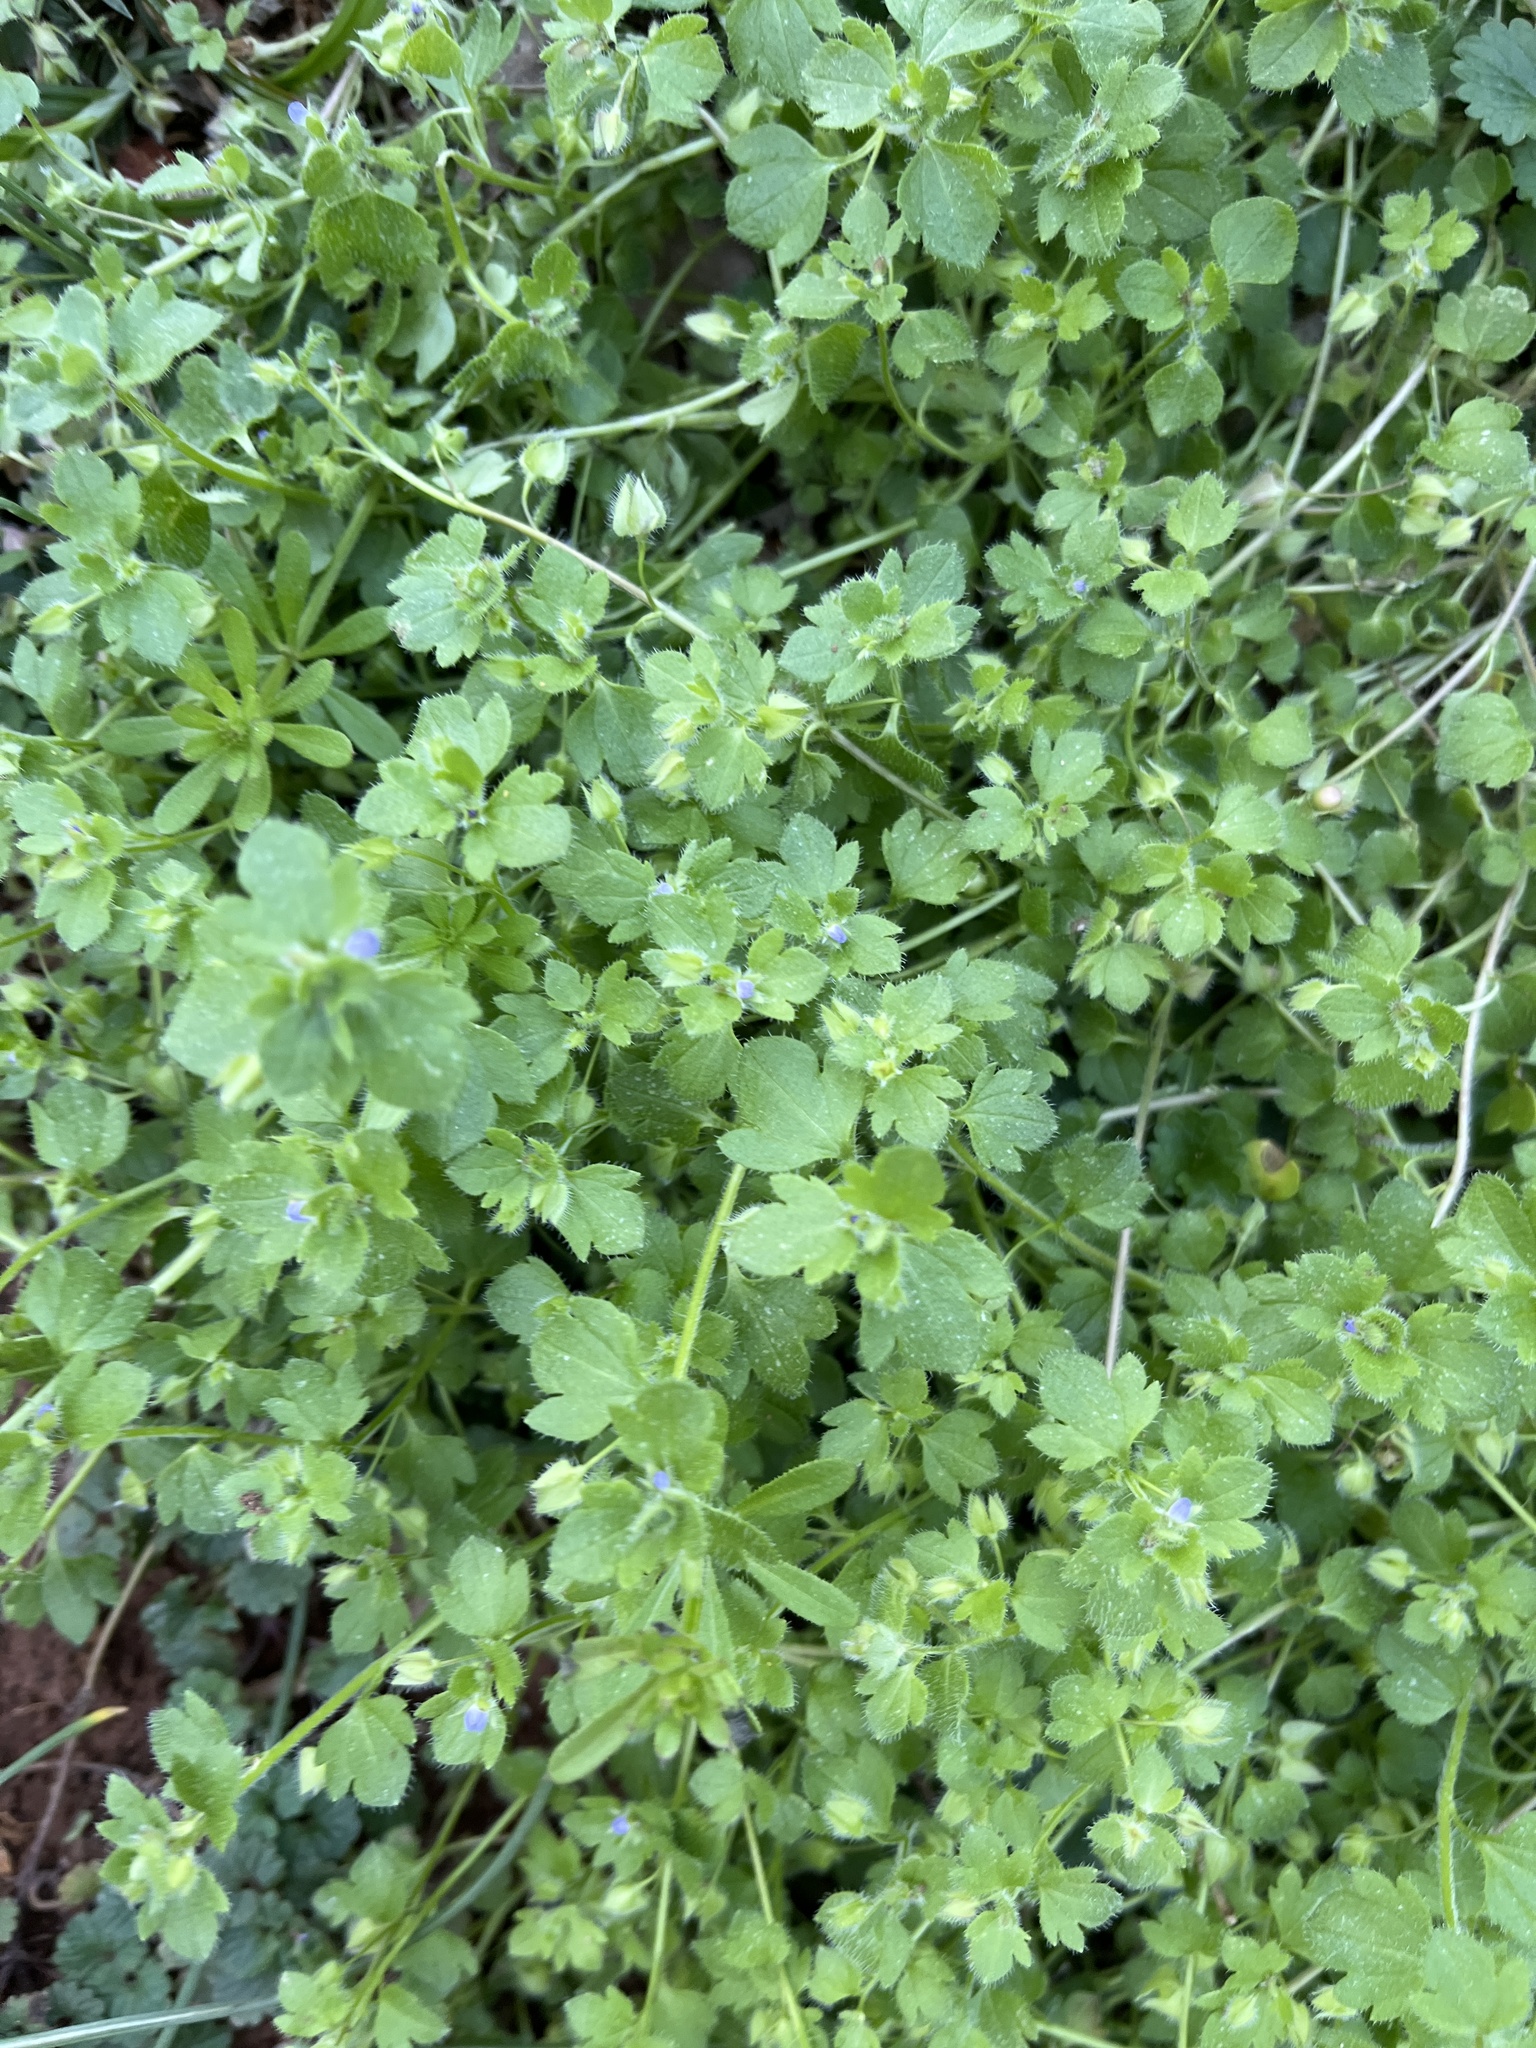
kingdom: Plantae
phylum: Tracheophyta
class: Magnoliopsida
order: Lamiales
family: Plantaginaceae
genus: Veronica
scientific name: Veronica hederifolia
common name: Ivy-leaved speedwell
